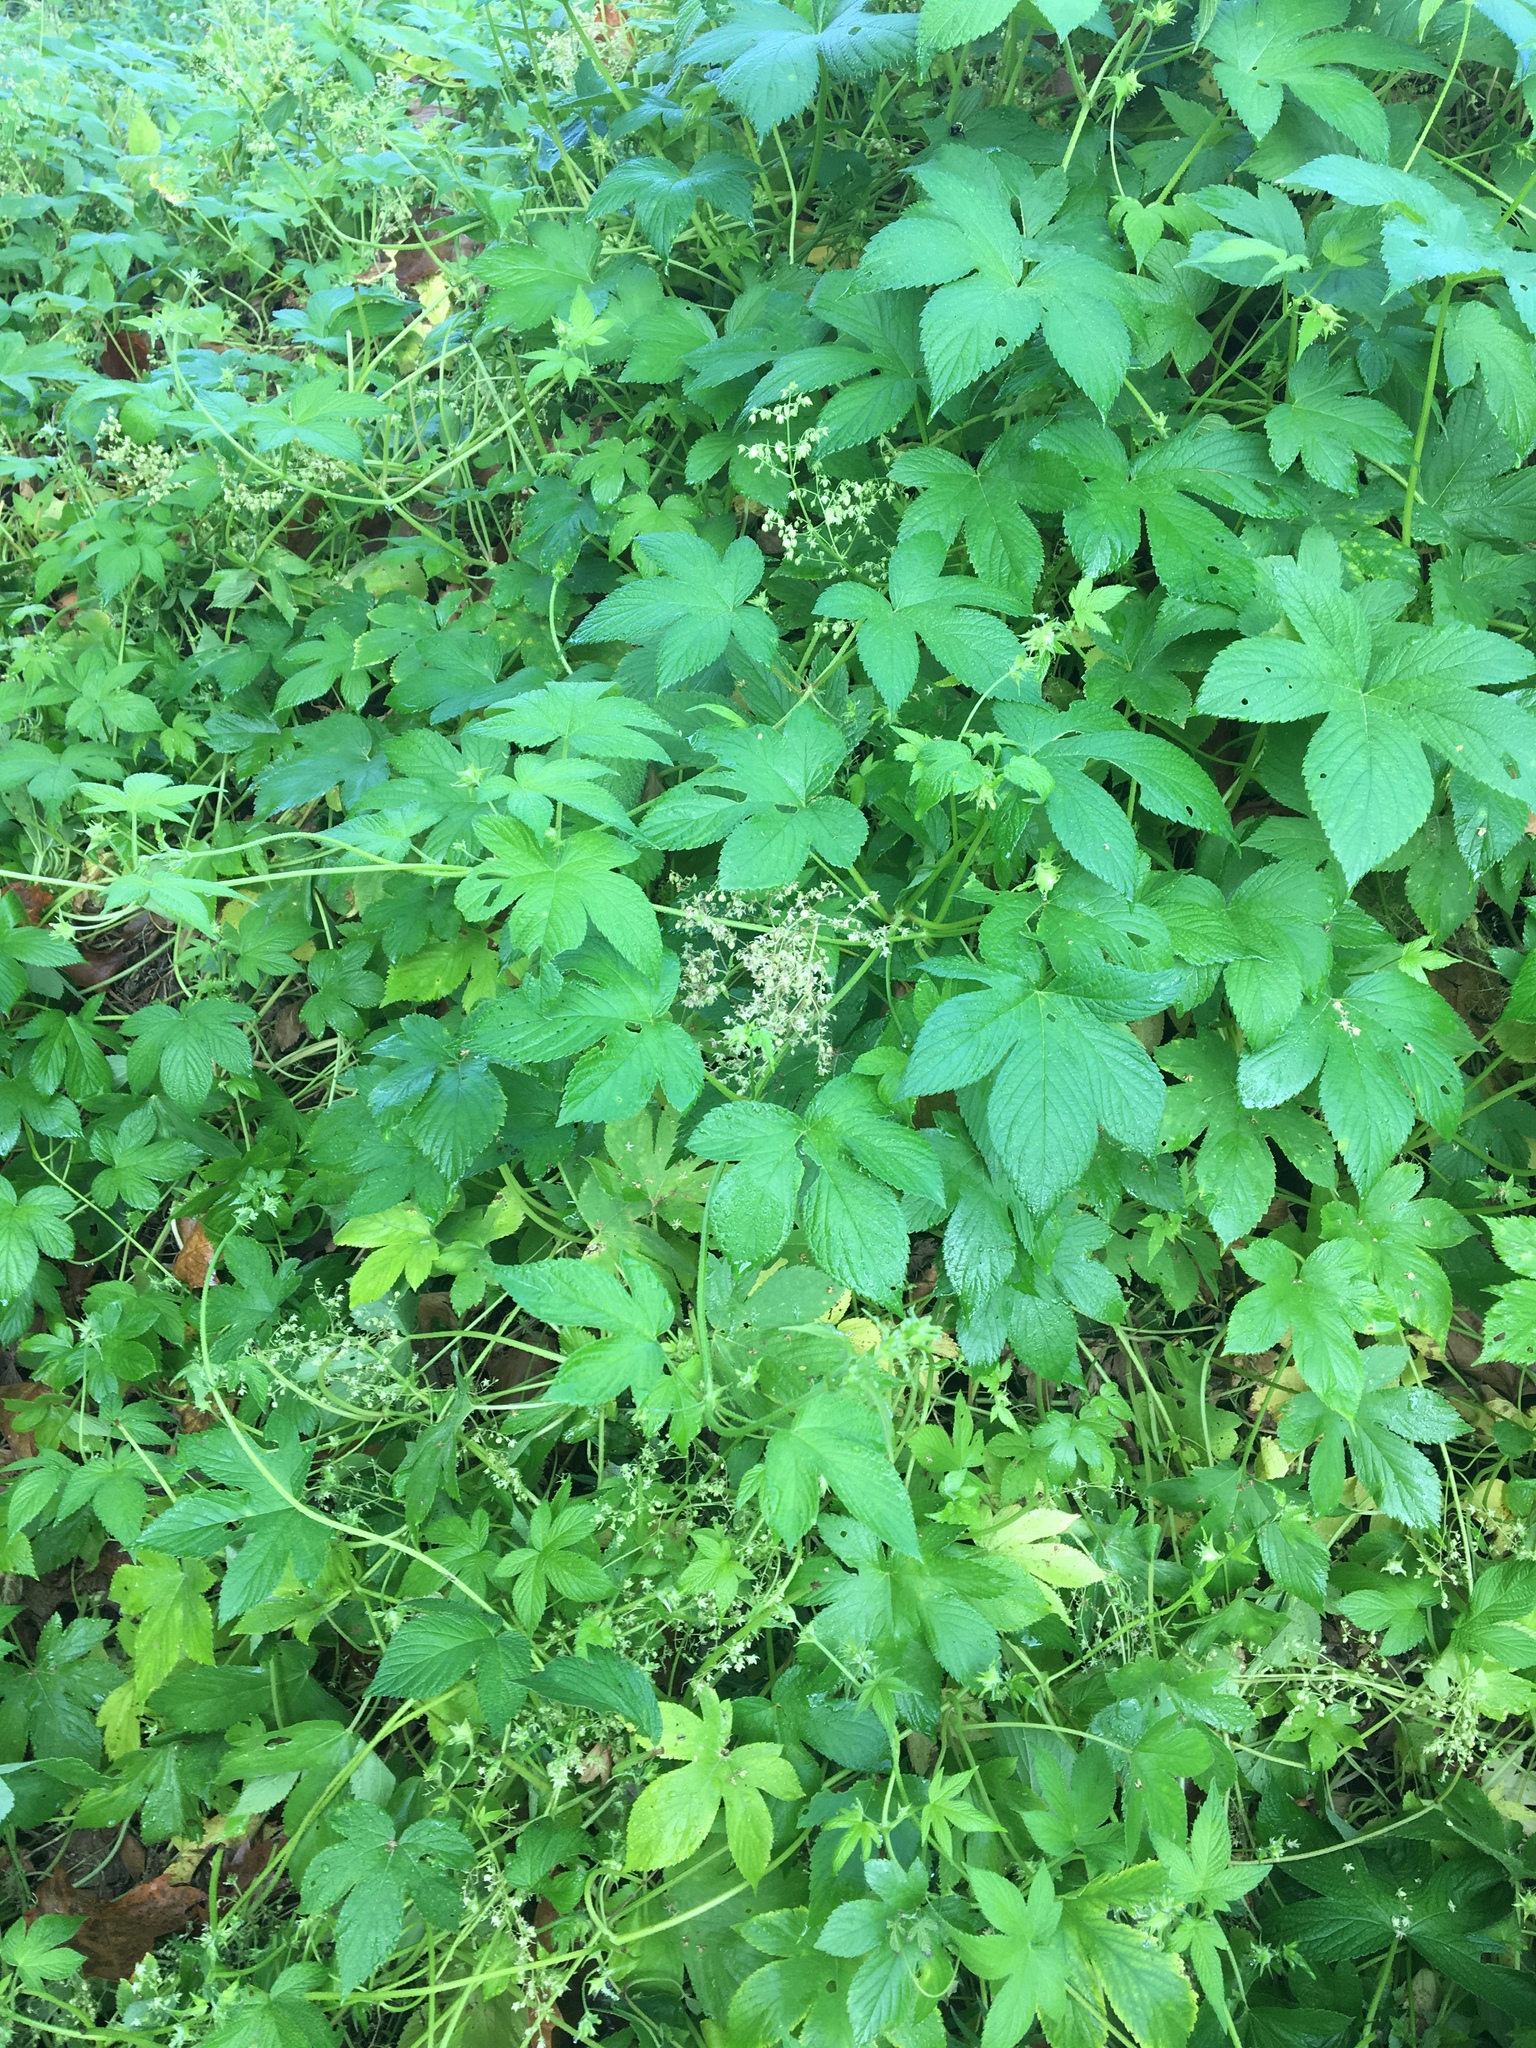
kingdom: Plantae
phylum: Tracheophyta
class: Magnoliopsida
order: Rosales
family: Cannabaceae
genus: Humulus
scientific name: Humulus scandens
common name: Japanese hop
